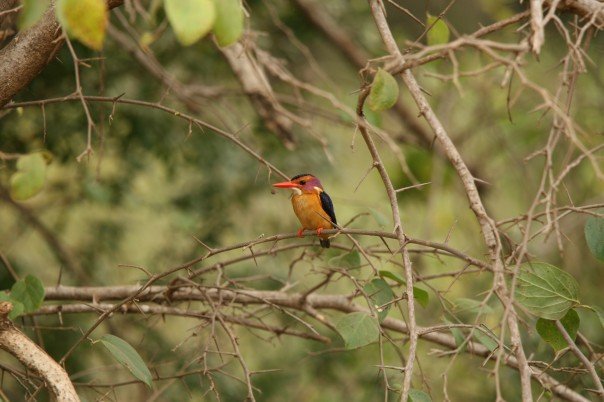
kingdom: Animalia
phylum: Chordata
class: Aves
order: Coraciiformes
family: Alcedinidae
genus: Ispidina
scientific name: Ispidina picta
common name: African pygmy-kingfisher
